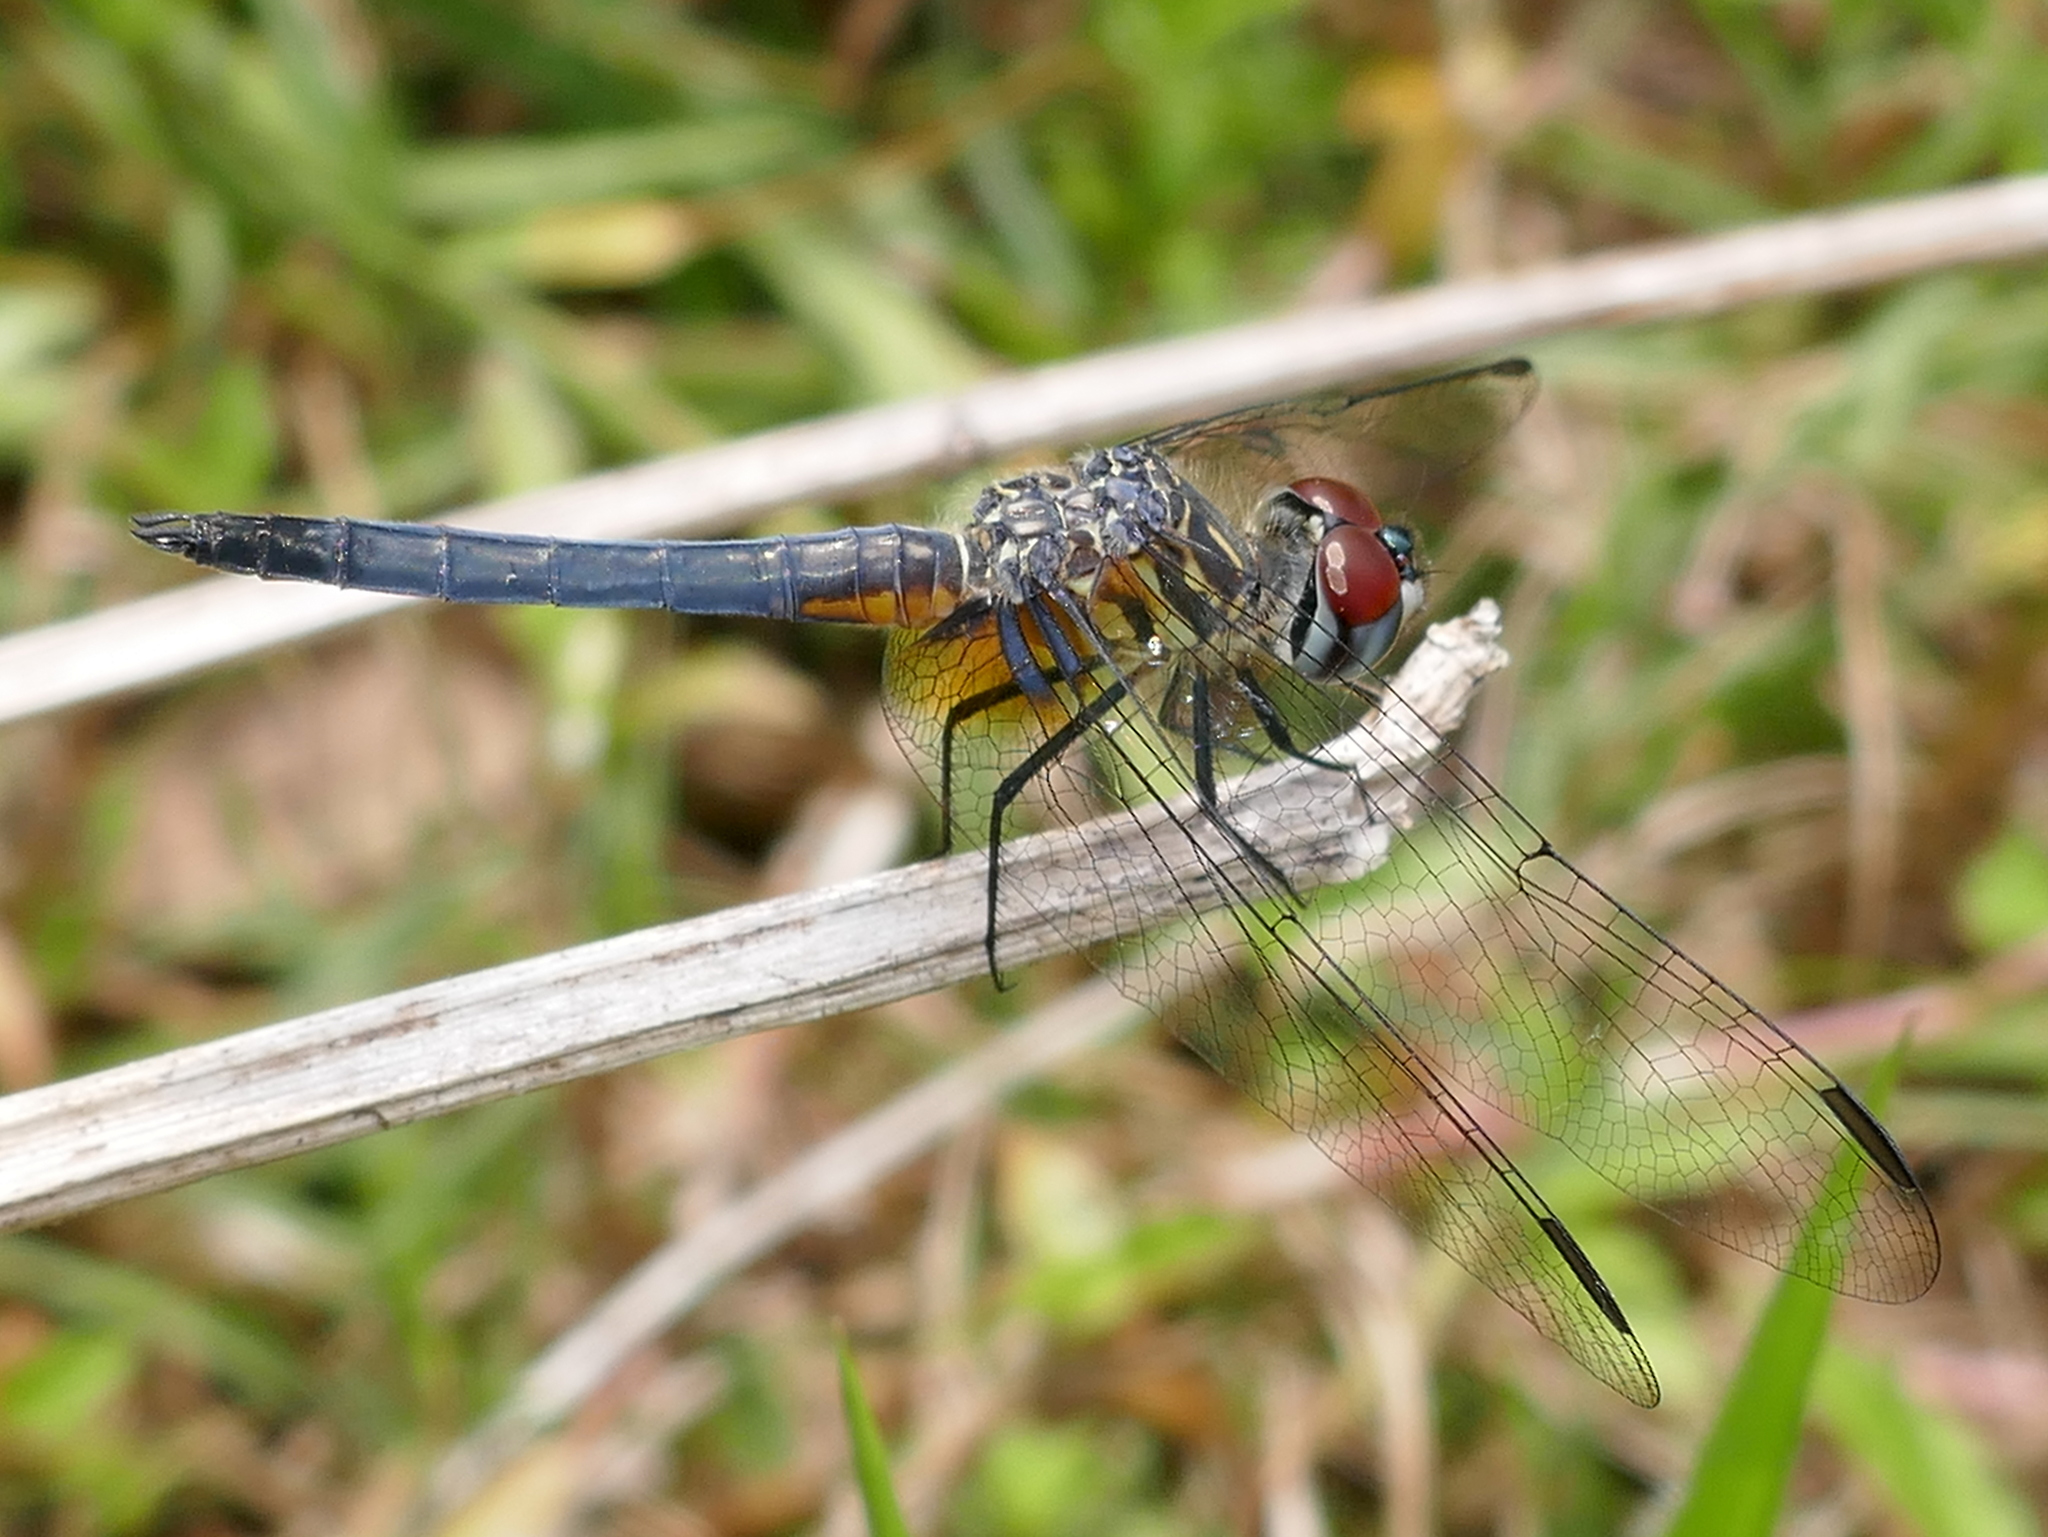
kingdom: Animalia
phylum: Arthropoda
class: Insecta
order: Odonata
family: Libellulidae
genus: Pachydiplax
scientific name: Pachydiplax longipennis
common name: Blue dasher
